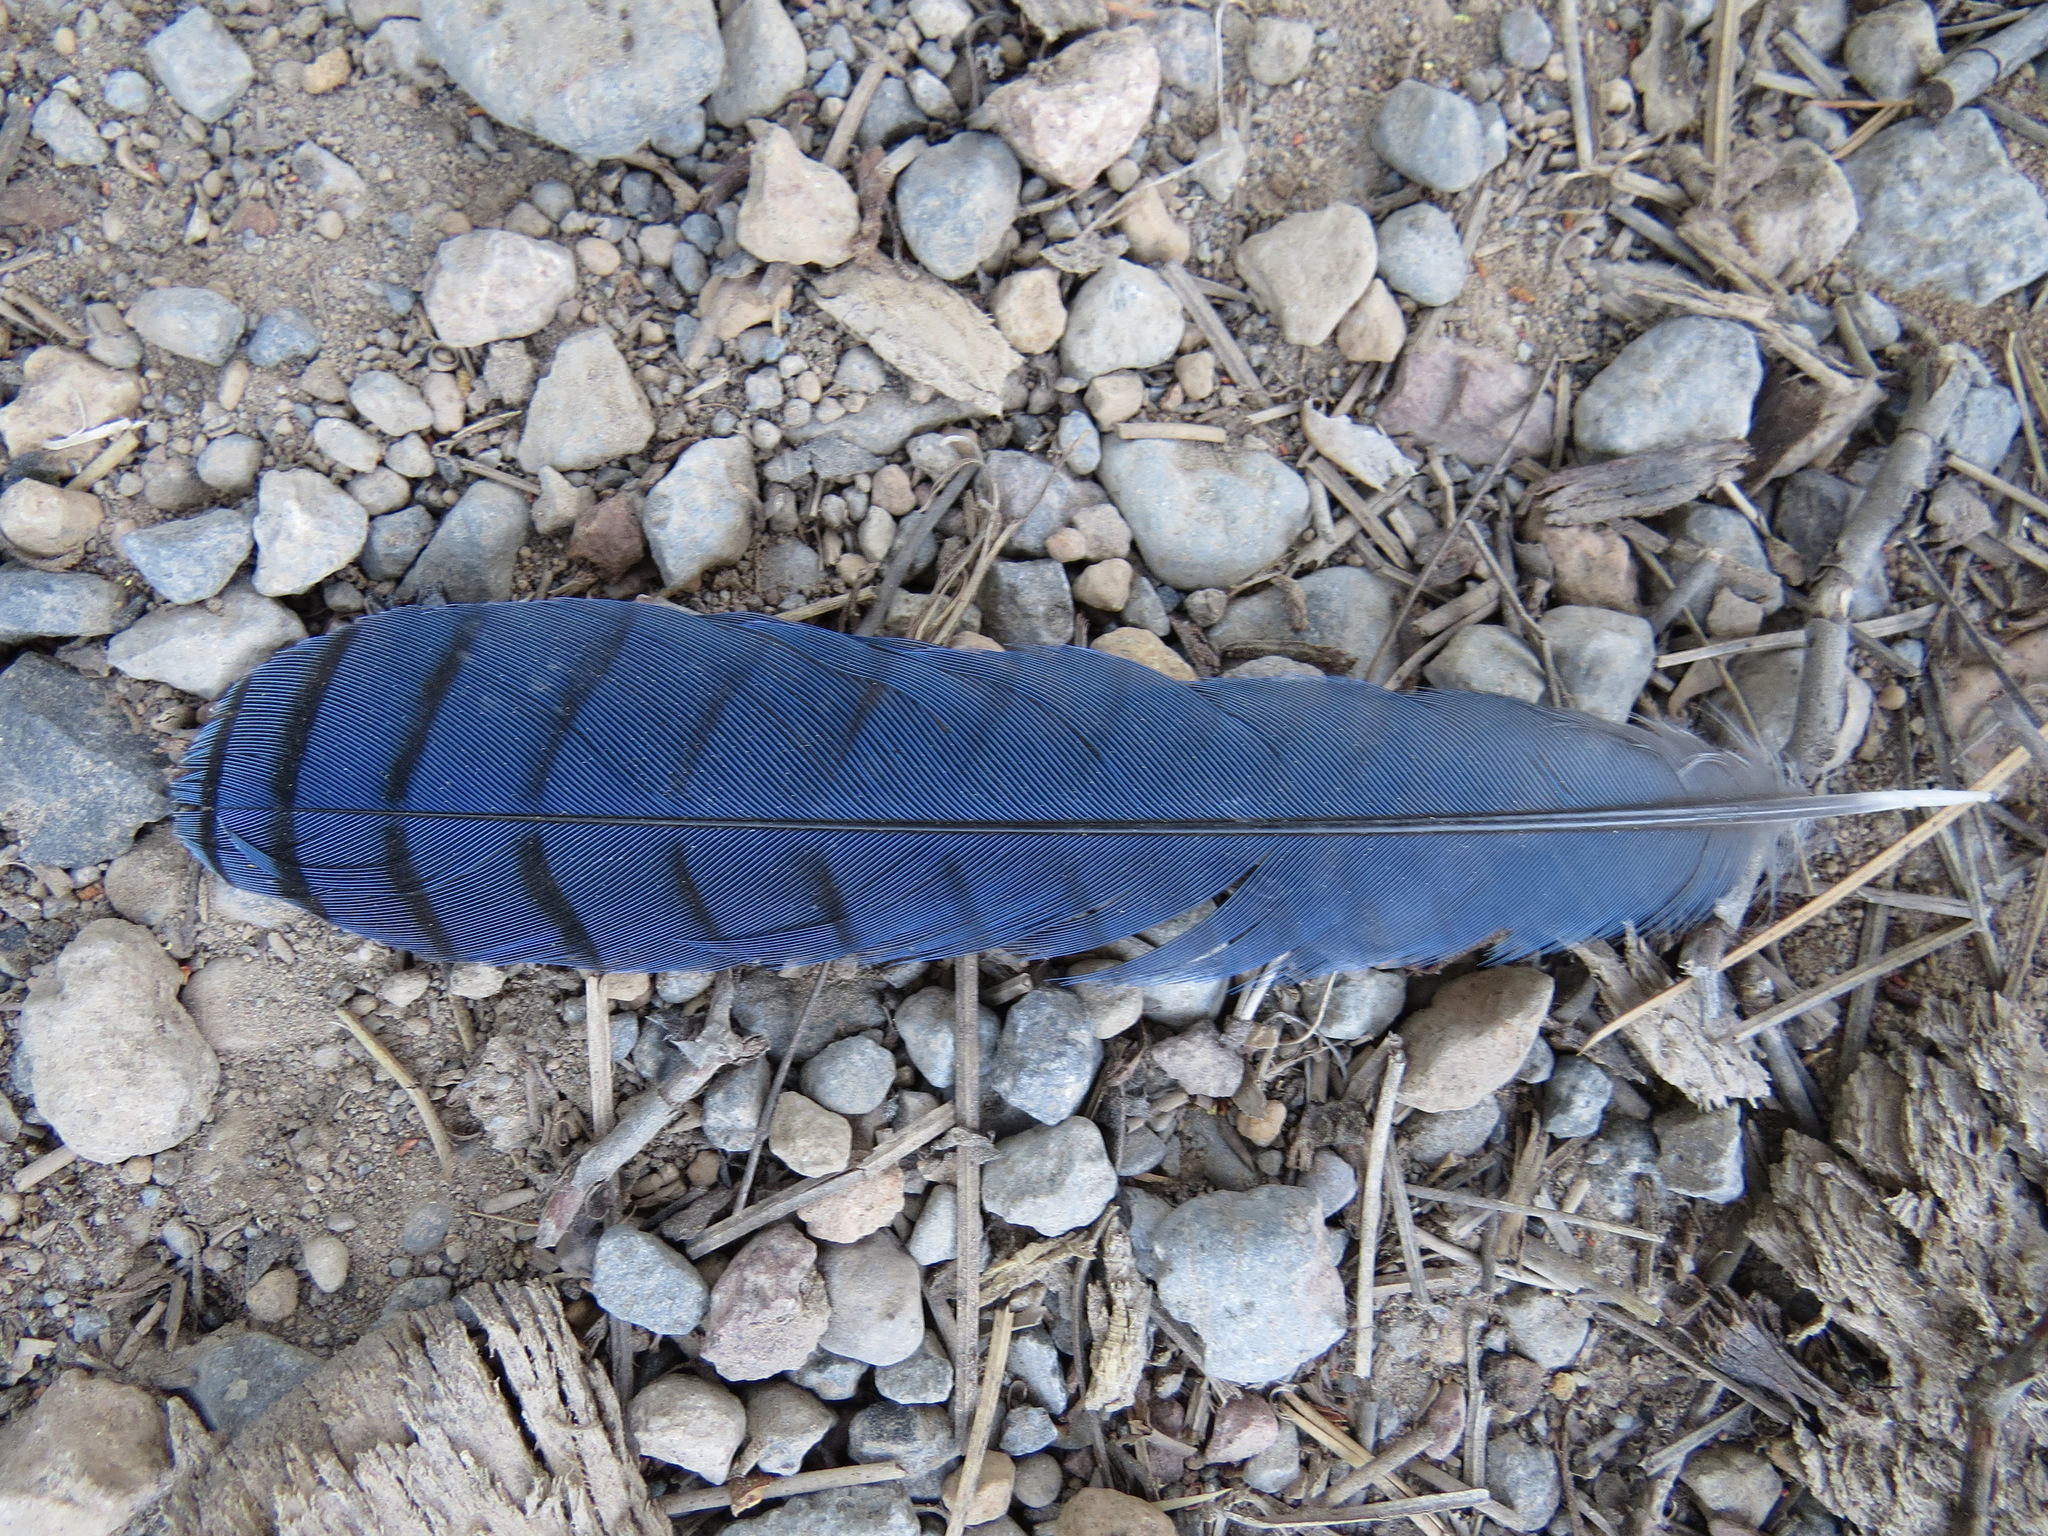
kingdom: Animalia
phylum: Chordata
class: Aves
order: Passeriformes
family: Corvidae
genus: Cyanocitta
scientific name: Cyanocitta stelleri
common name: Steller's jay
